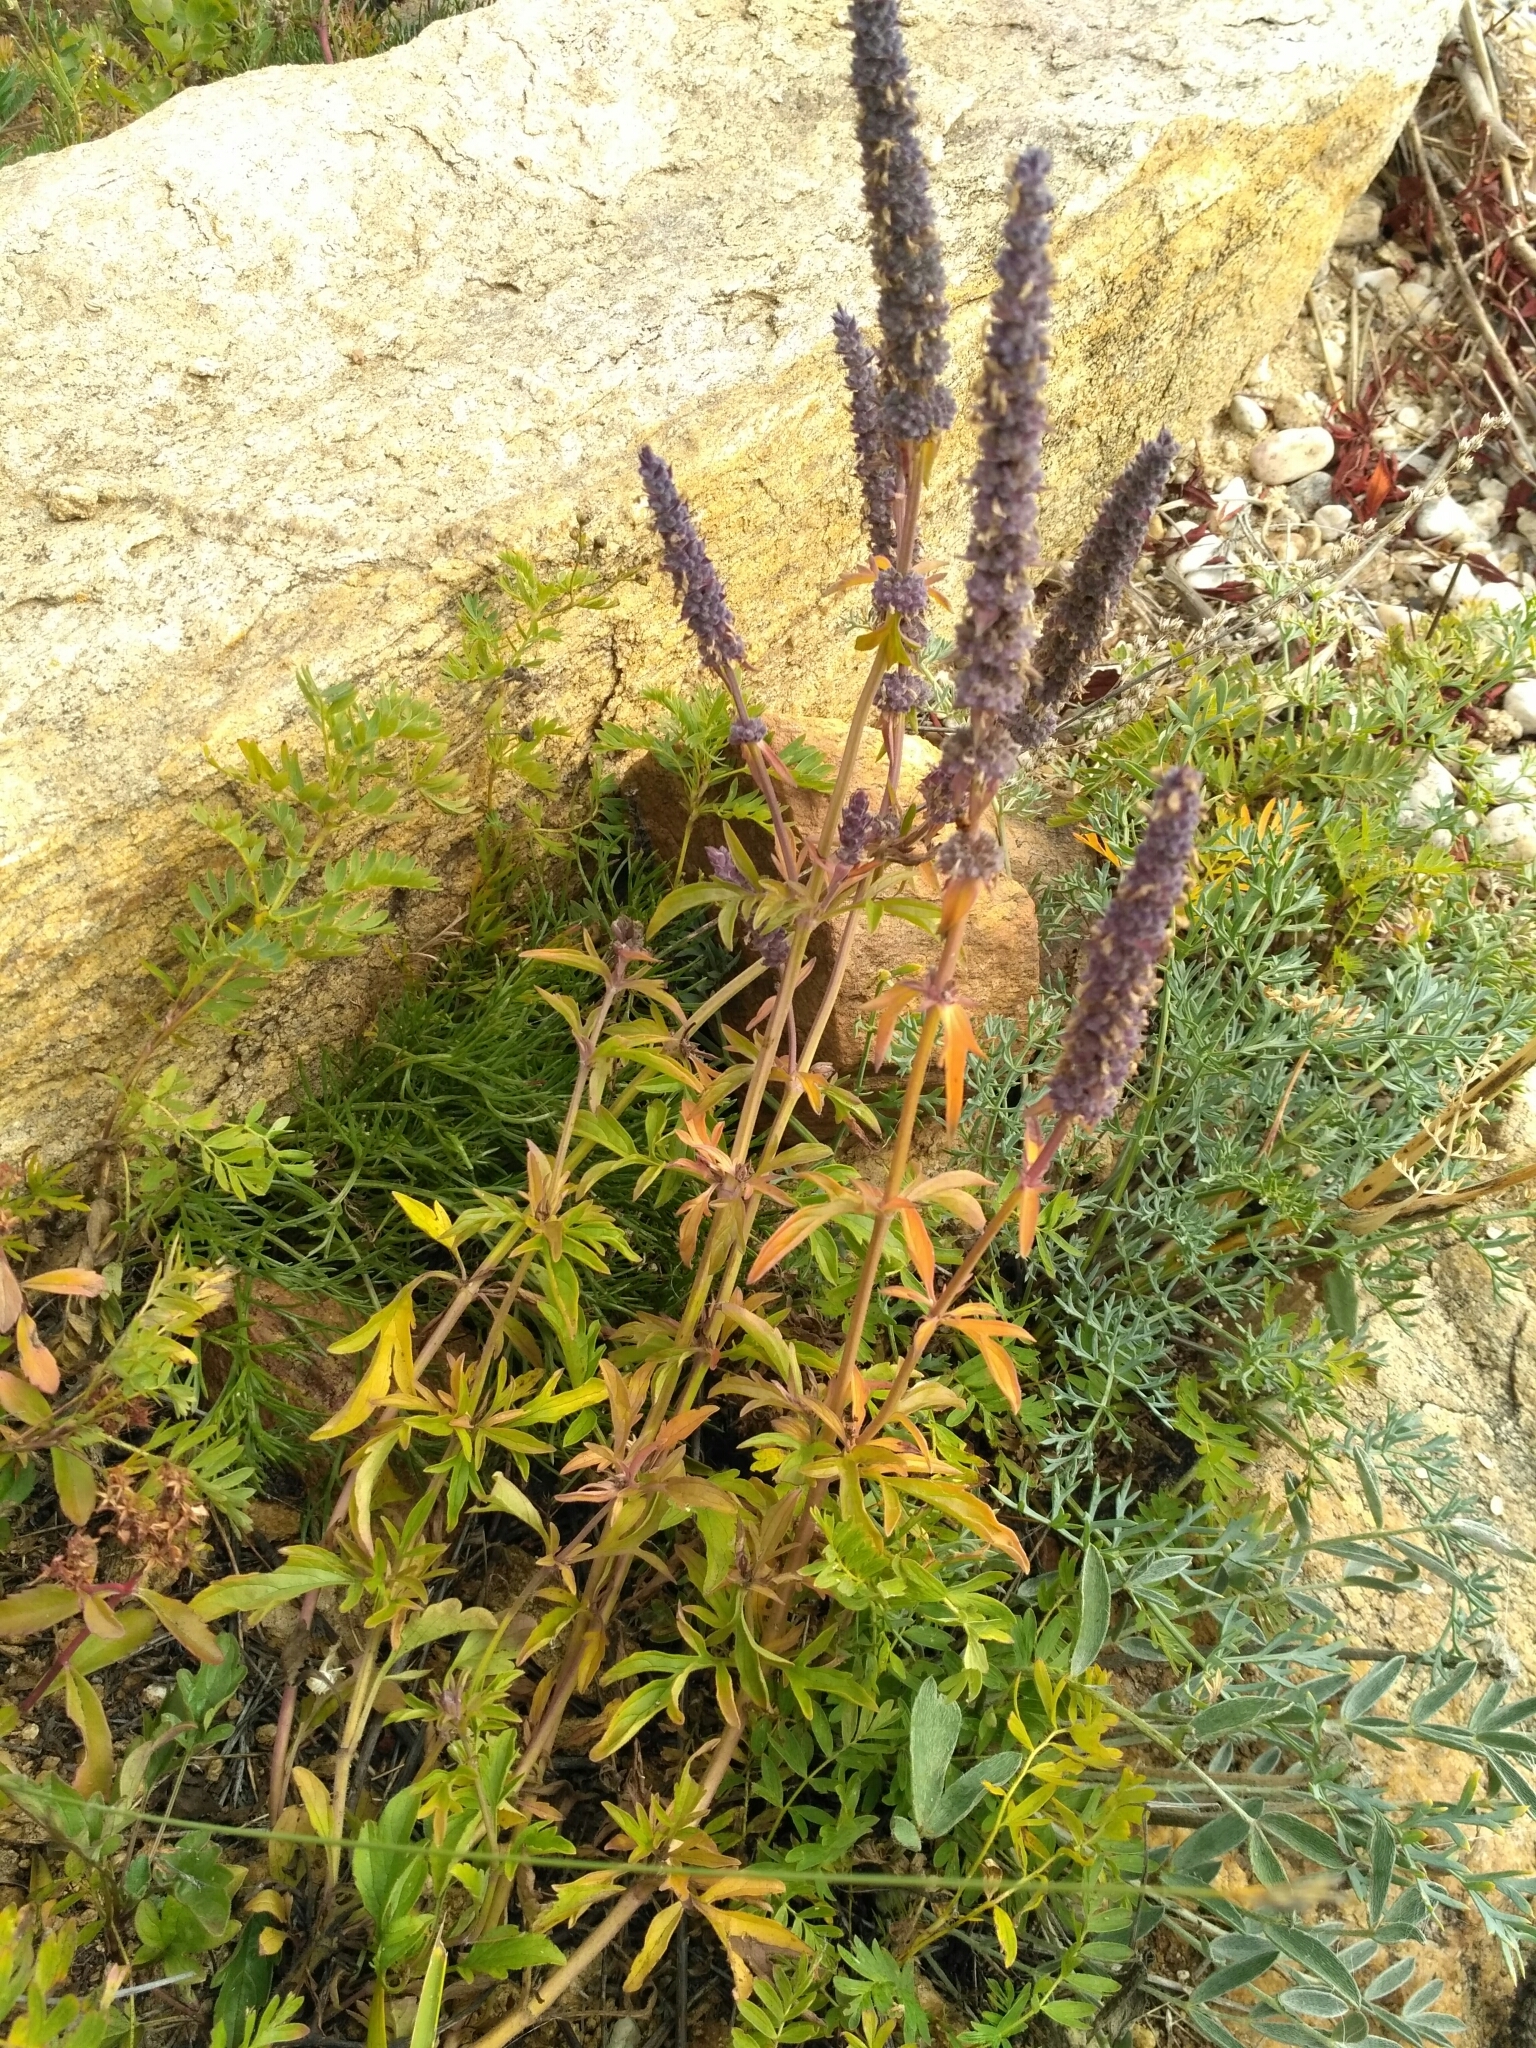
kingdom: Plantae
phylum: Tracheophyta
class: Magnoliopsida
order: Lamiales
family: Lamiaceae
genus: Nepeta
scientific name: Nepeta multifida
